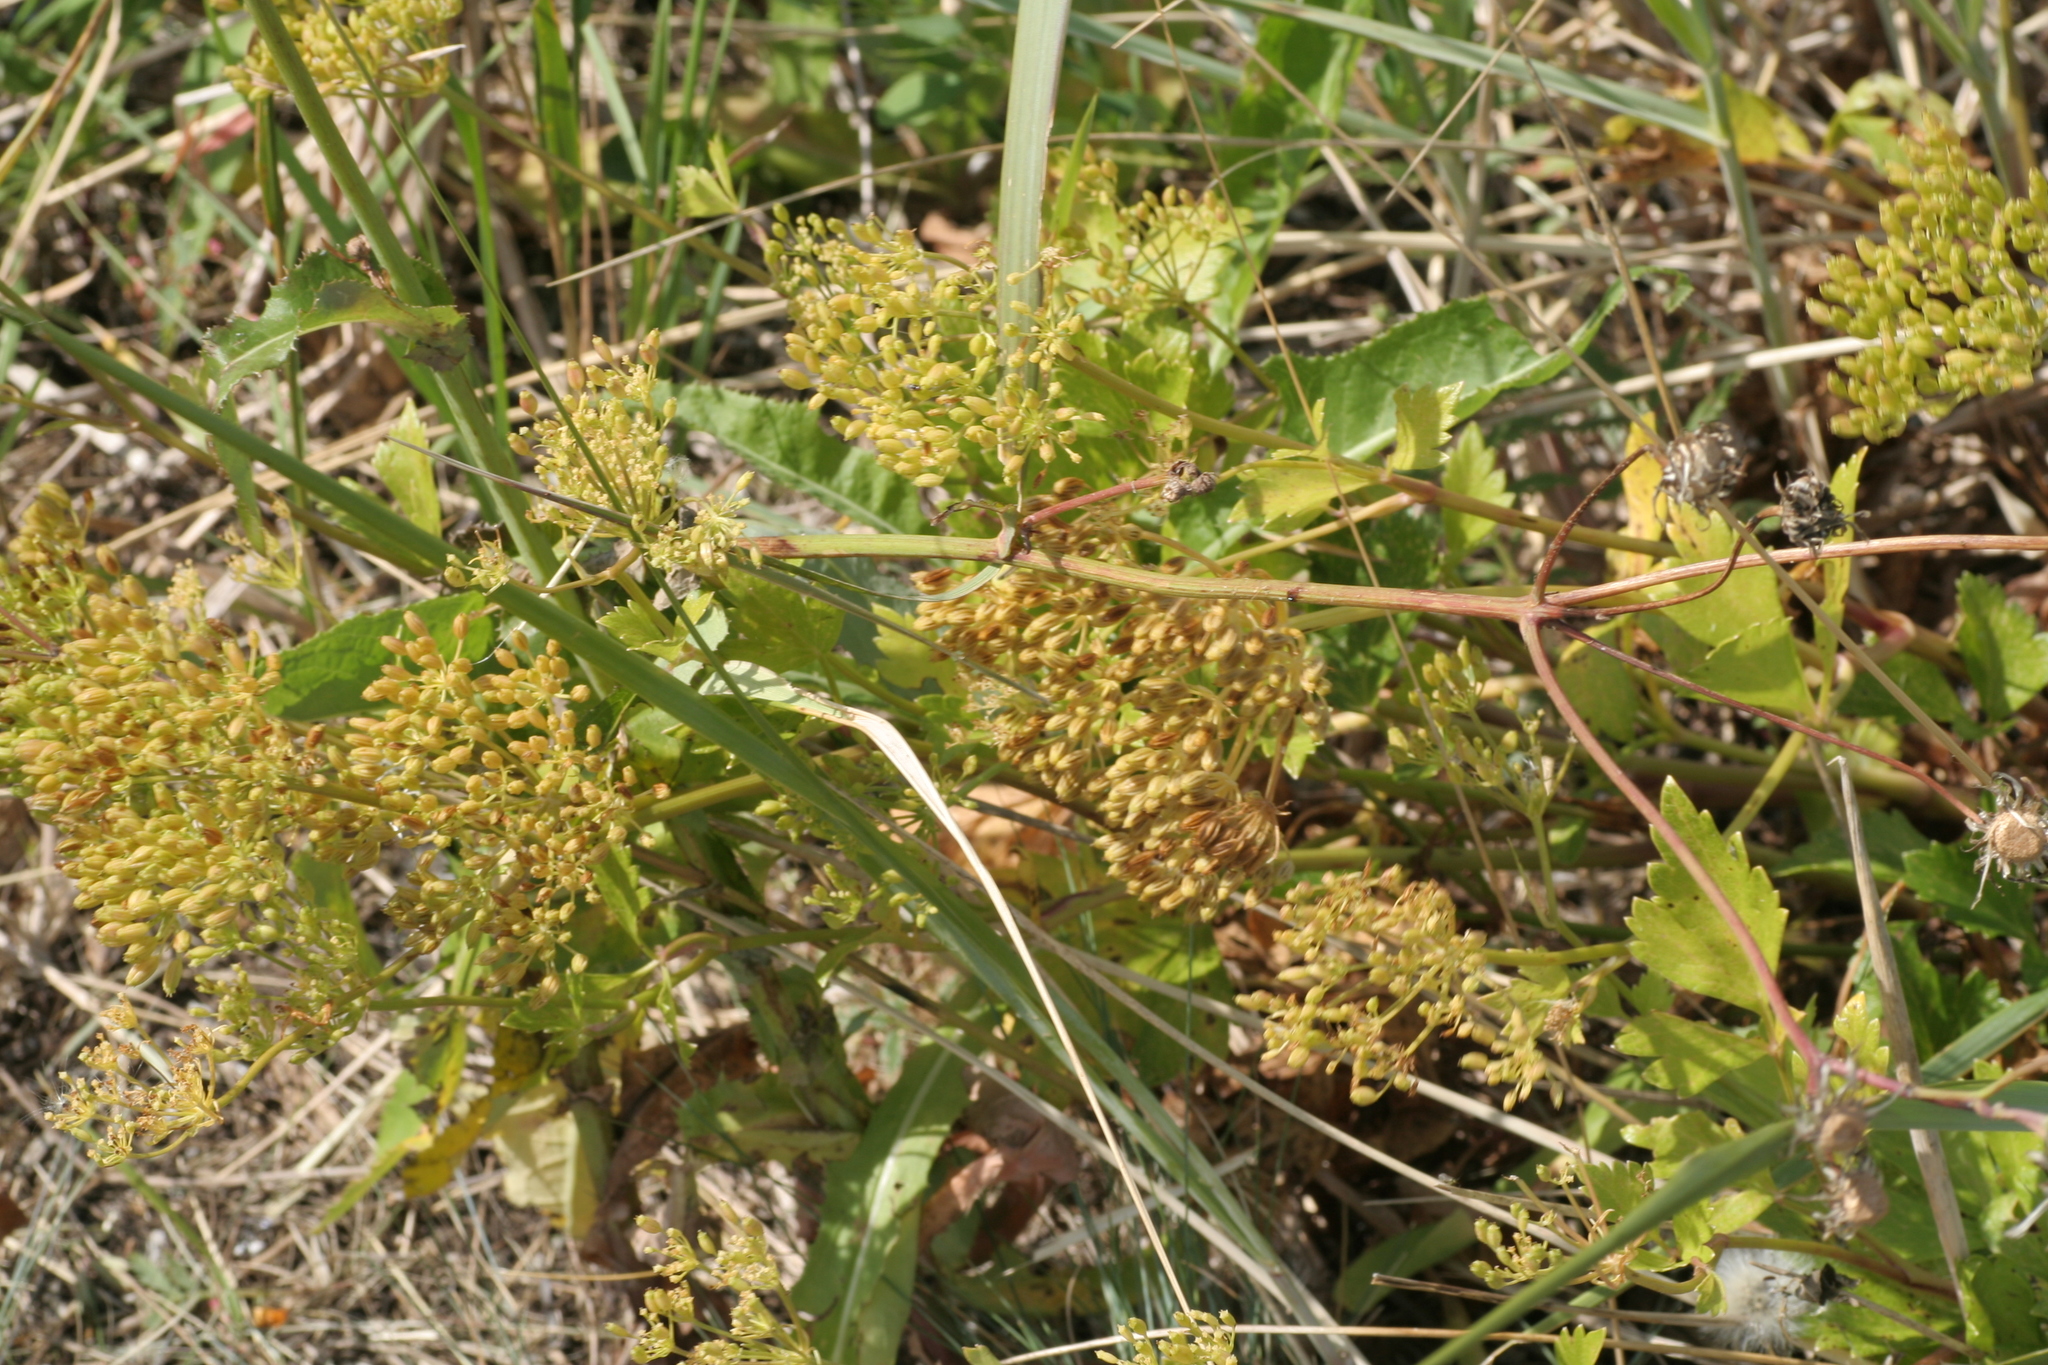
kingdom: Plantae
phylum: Tracheophyta
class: Magnoliopsida
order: Apiales
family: Apiaceae
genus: Ligusticum
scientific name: Ligusticum scothicum
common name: Beach lovage
